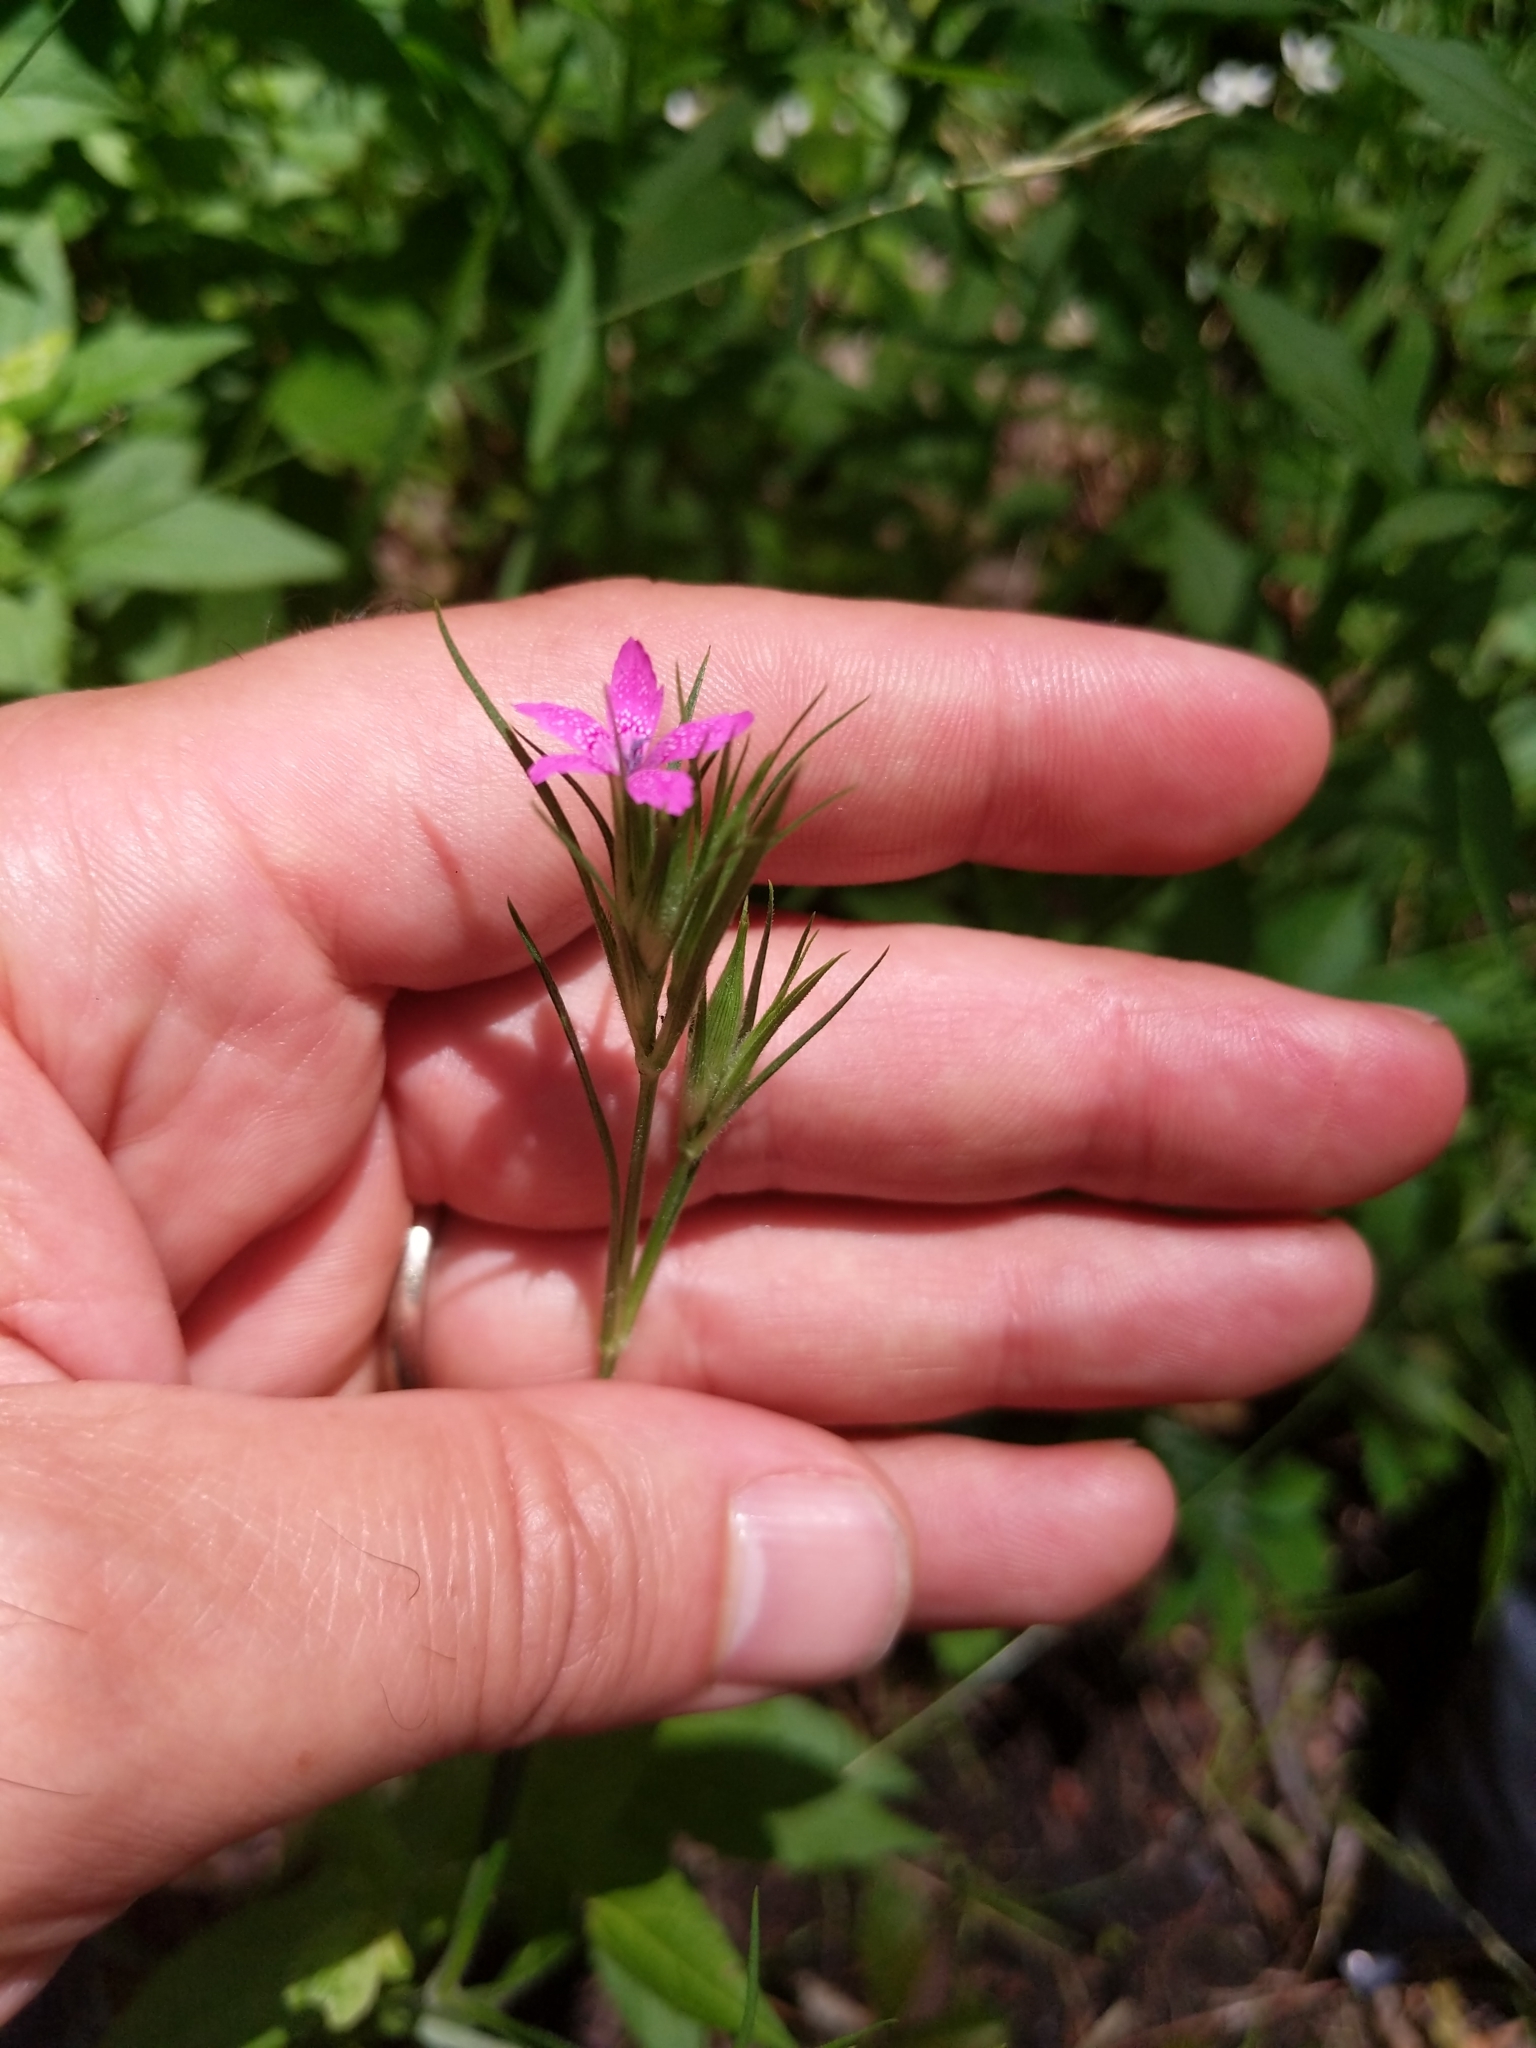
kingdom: Plantae
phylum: Tracheophyta
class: Magnoliopsida
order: Caryophyllales
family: Caryophyllaceae
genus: Dianthus
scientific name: Dianthus armeria
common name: Deptford pink
